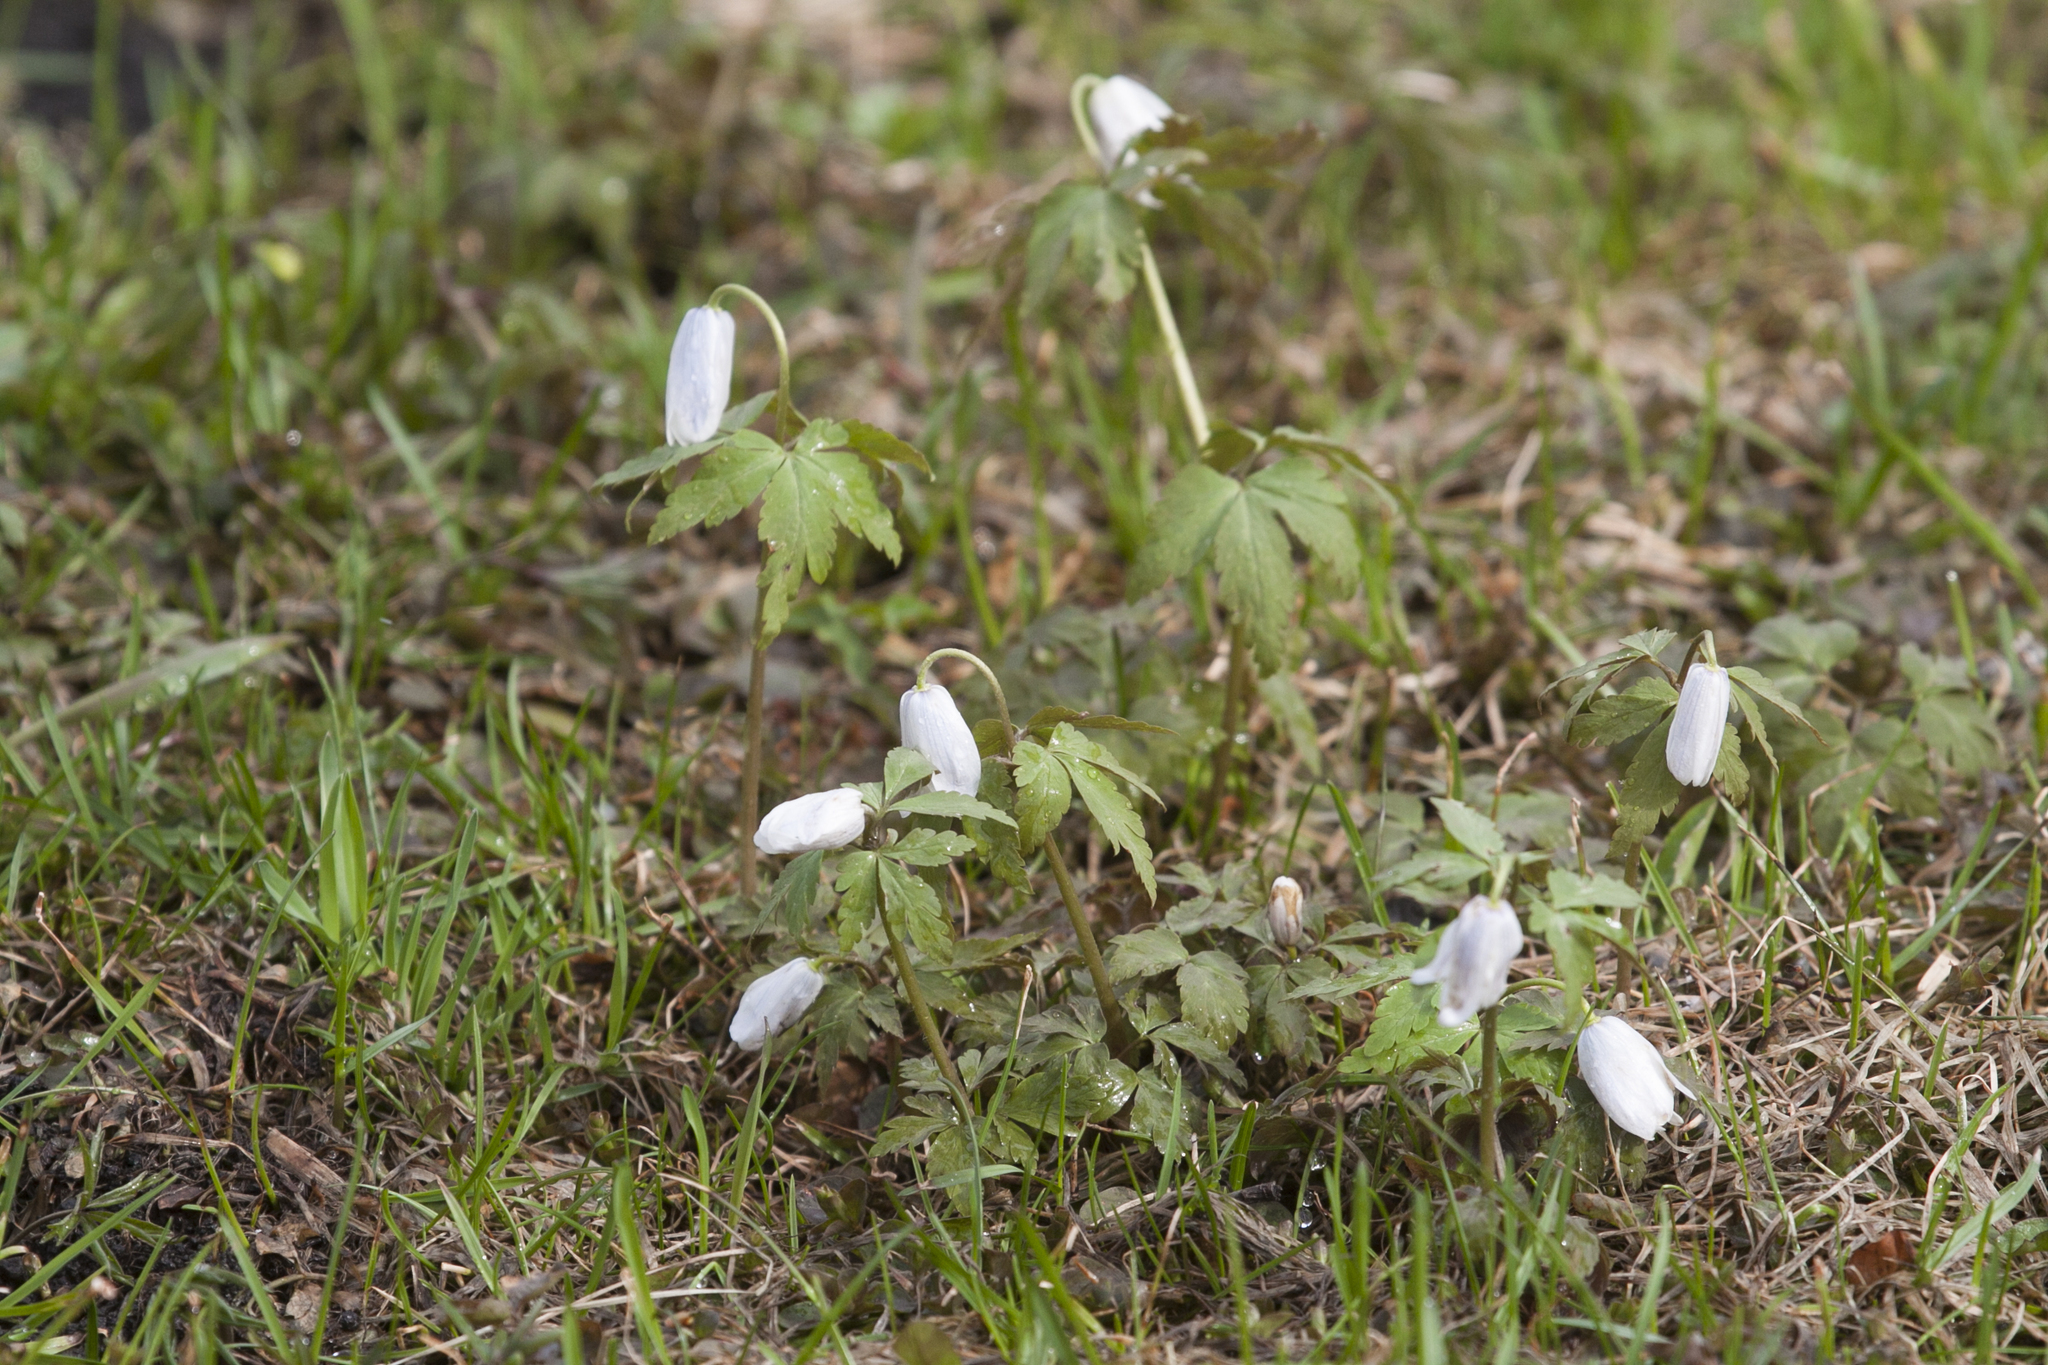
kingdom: Plantae
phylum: Tracheophyta
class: Magnoliopsida
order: Ranunculales
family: Ranunculaceae
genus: Anemone
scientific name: Anemone altaica
